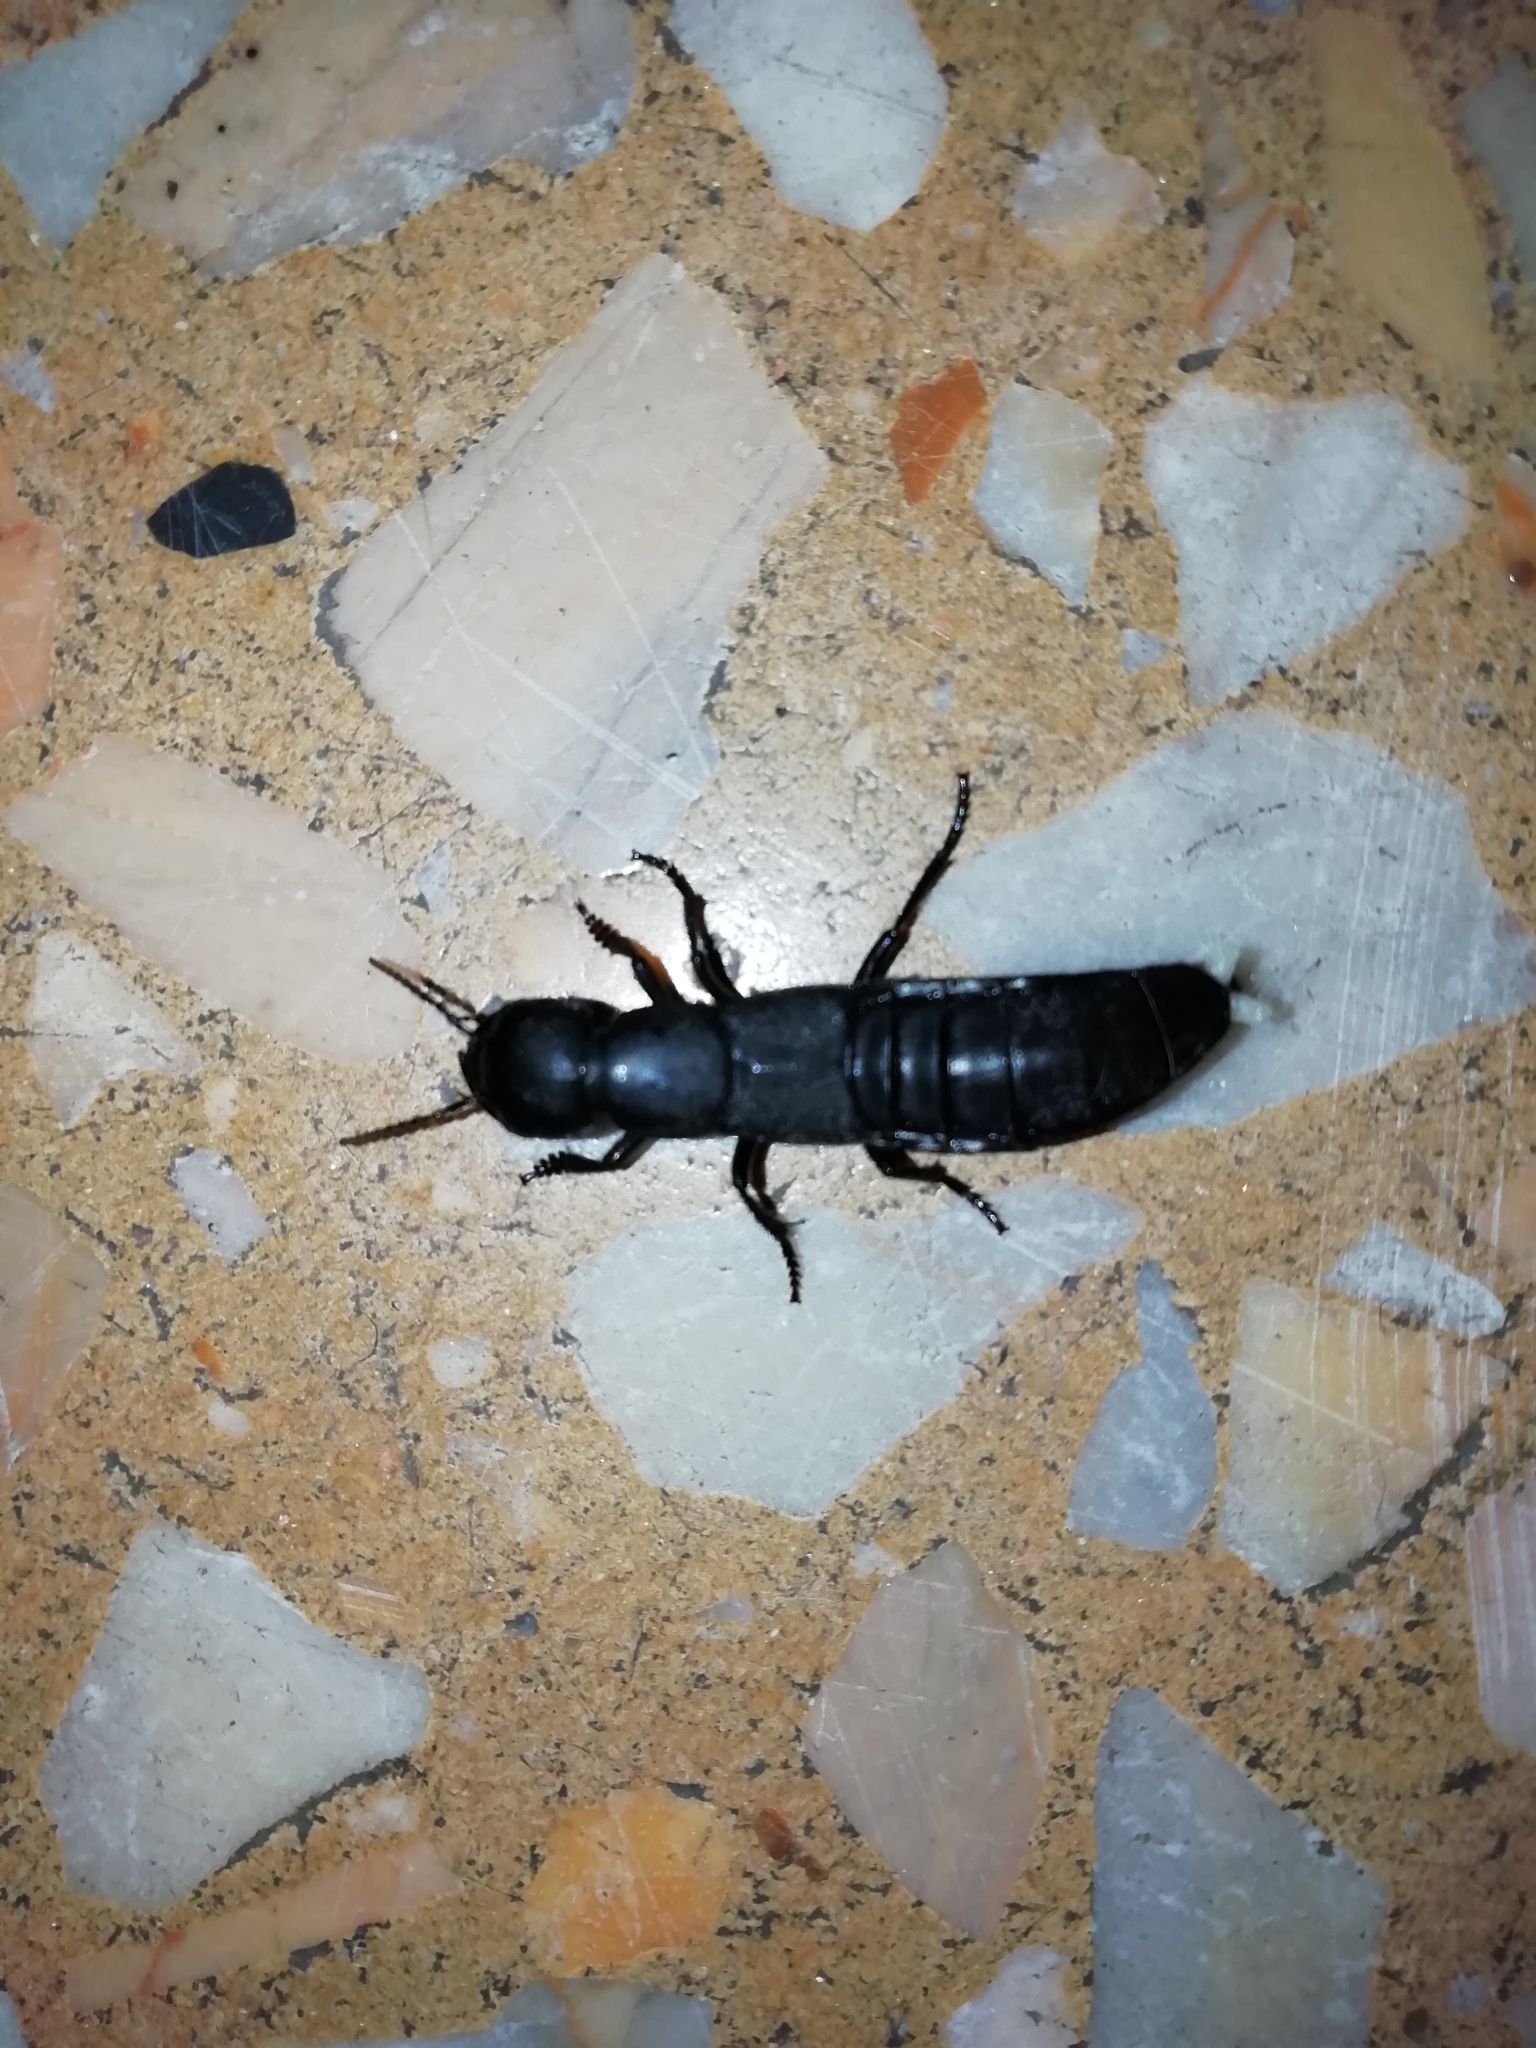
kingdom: Animalia
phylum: Arthropoda
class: Insecta
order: Coleoptera
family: Staphylinidae
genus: Ocypus
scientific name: Ocypus olens
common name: Devil's coach-horse
